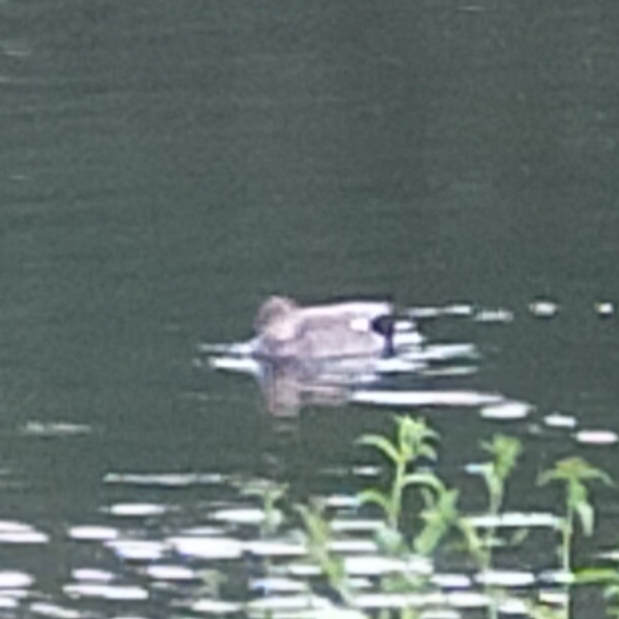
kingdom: Animalia
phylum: Chordata
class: Aves
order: Anseriformes
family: Anatidae
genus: Mareca
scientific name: Mareca strepera
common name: Gadwall
